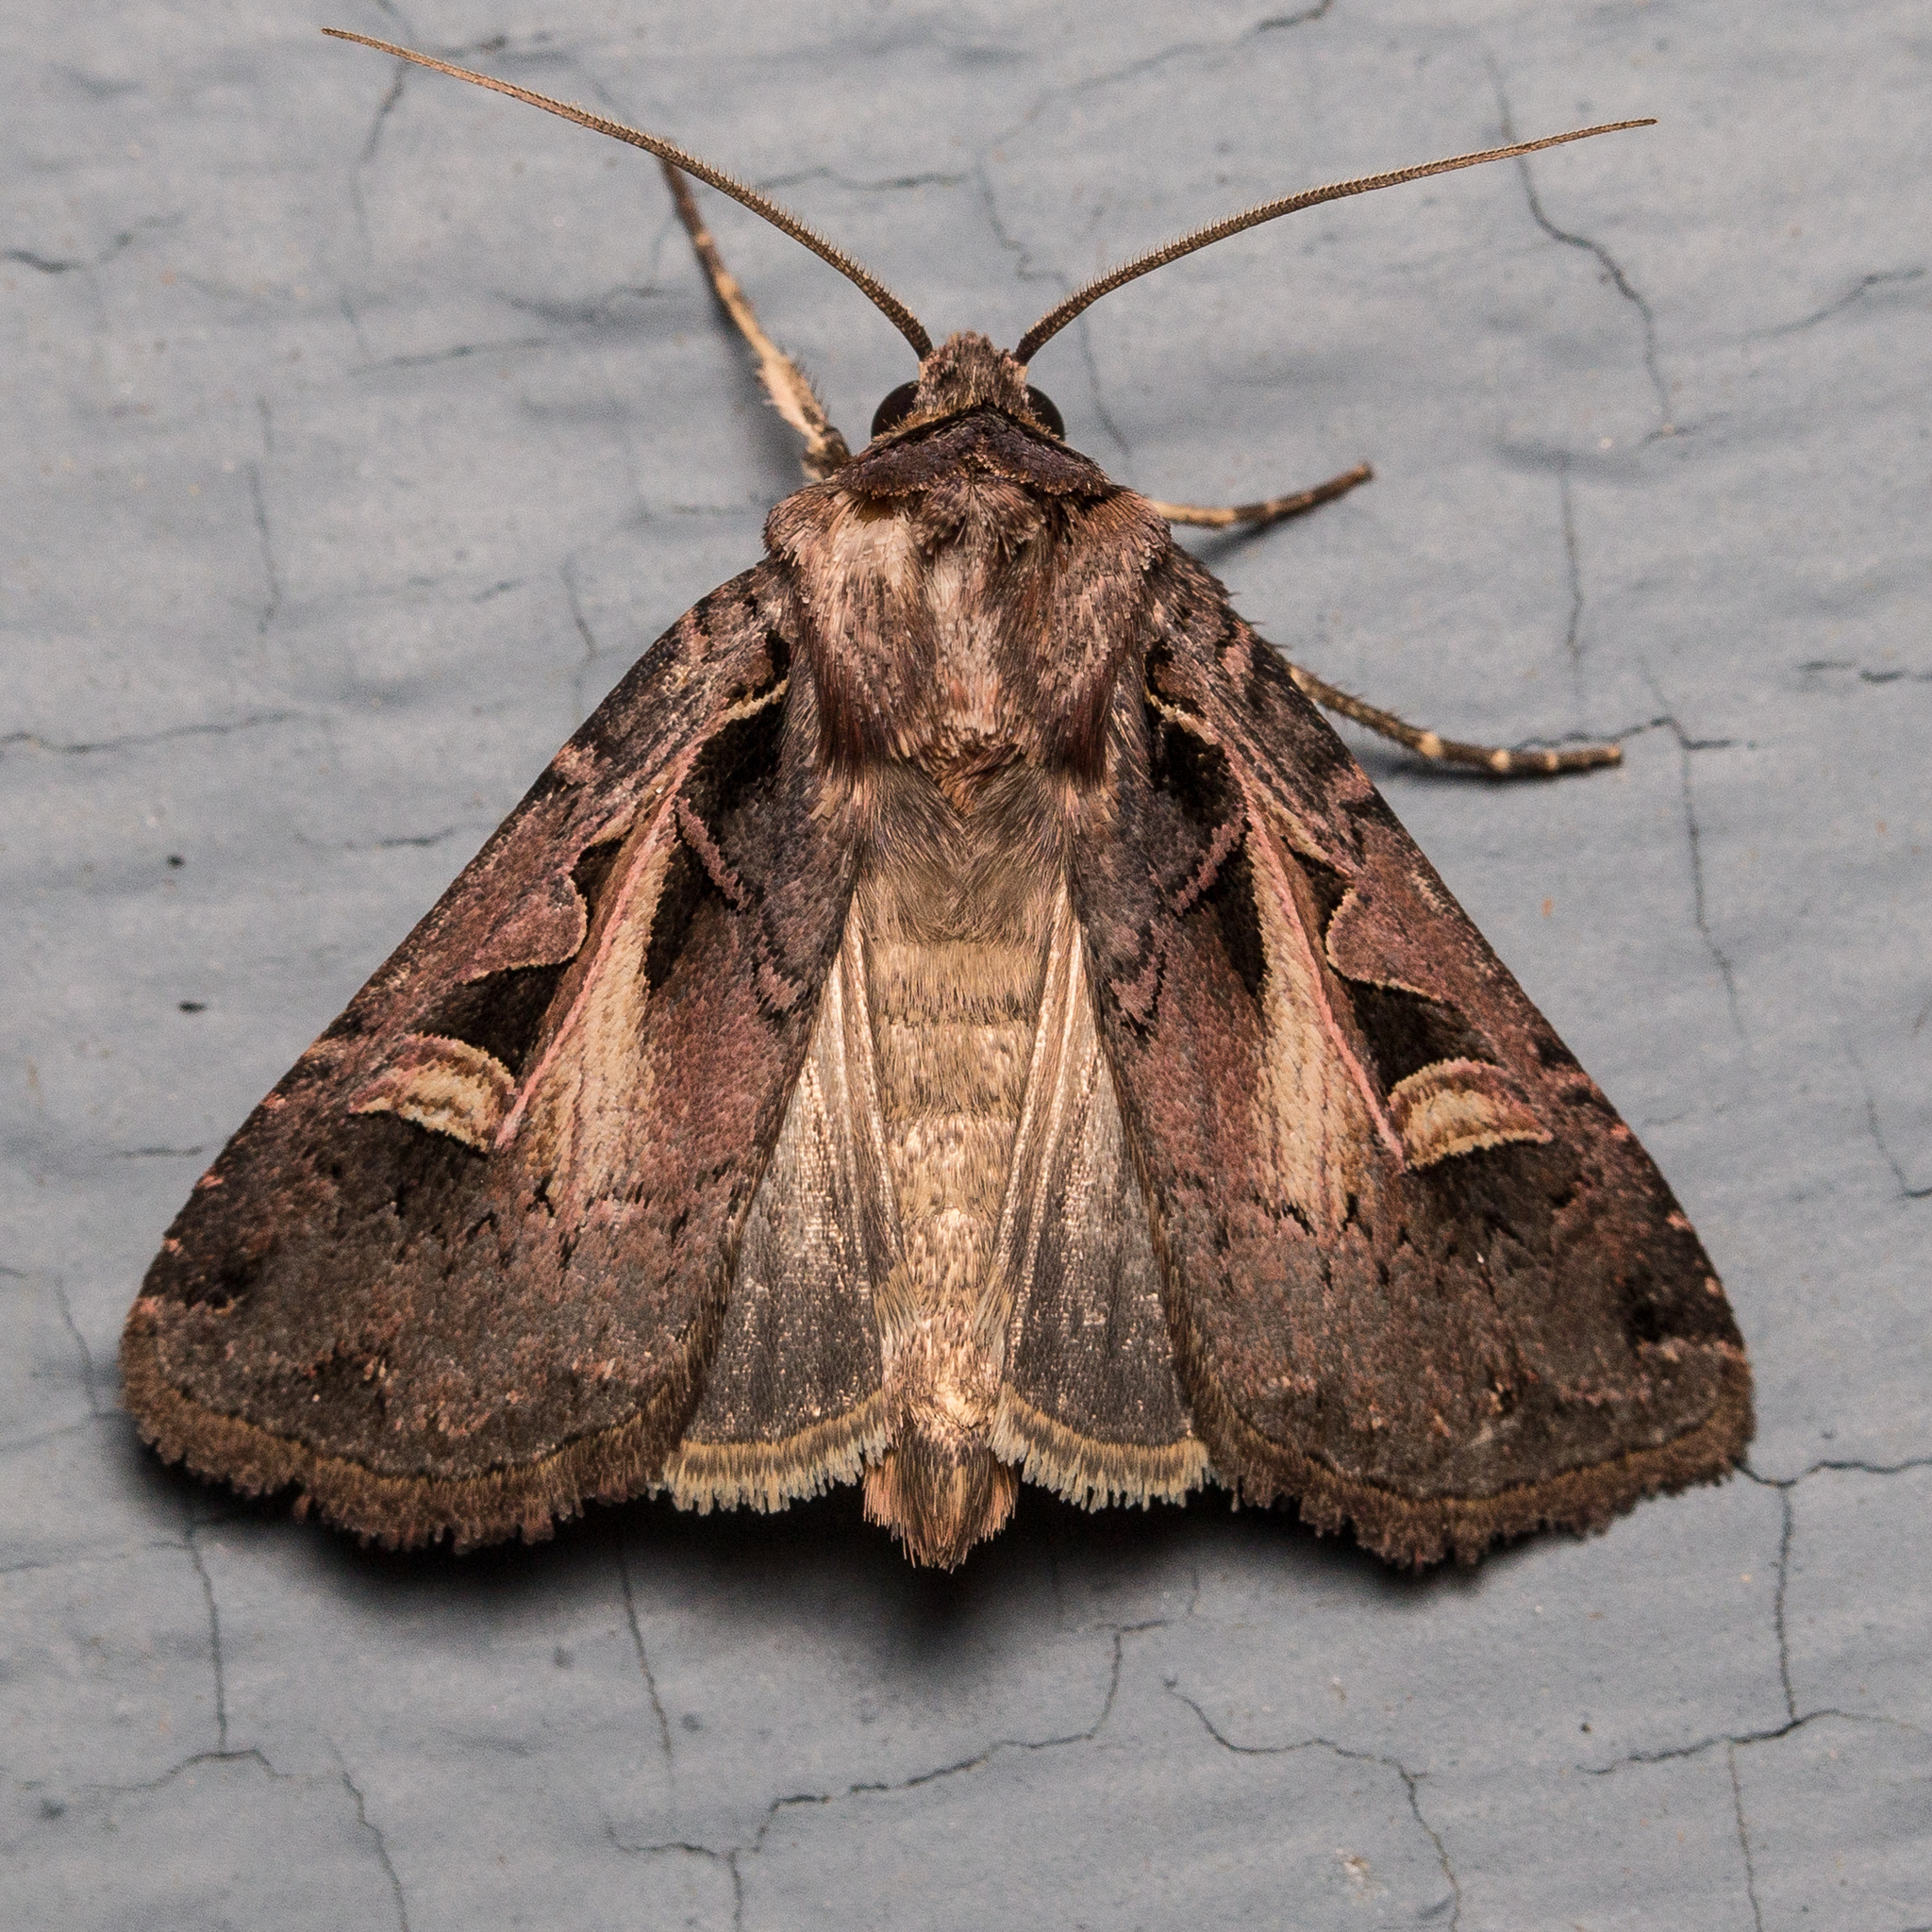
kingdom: Animalia
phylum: Arthropoda
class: Insecta
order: Lepidoptera
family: Noctuidae
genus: Feltia
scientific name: Feltia herilis
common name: Master's dart
